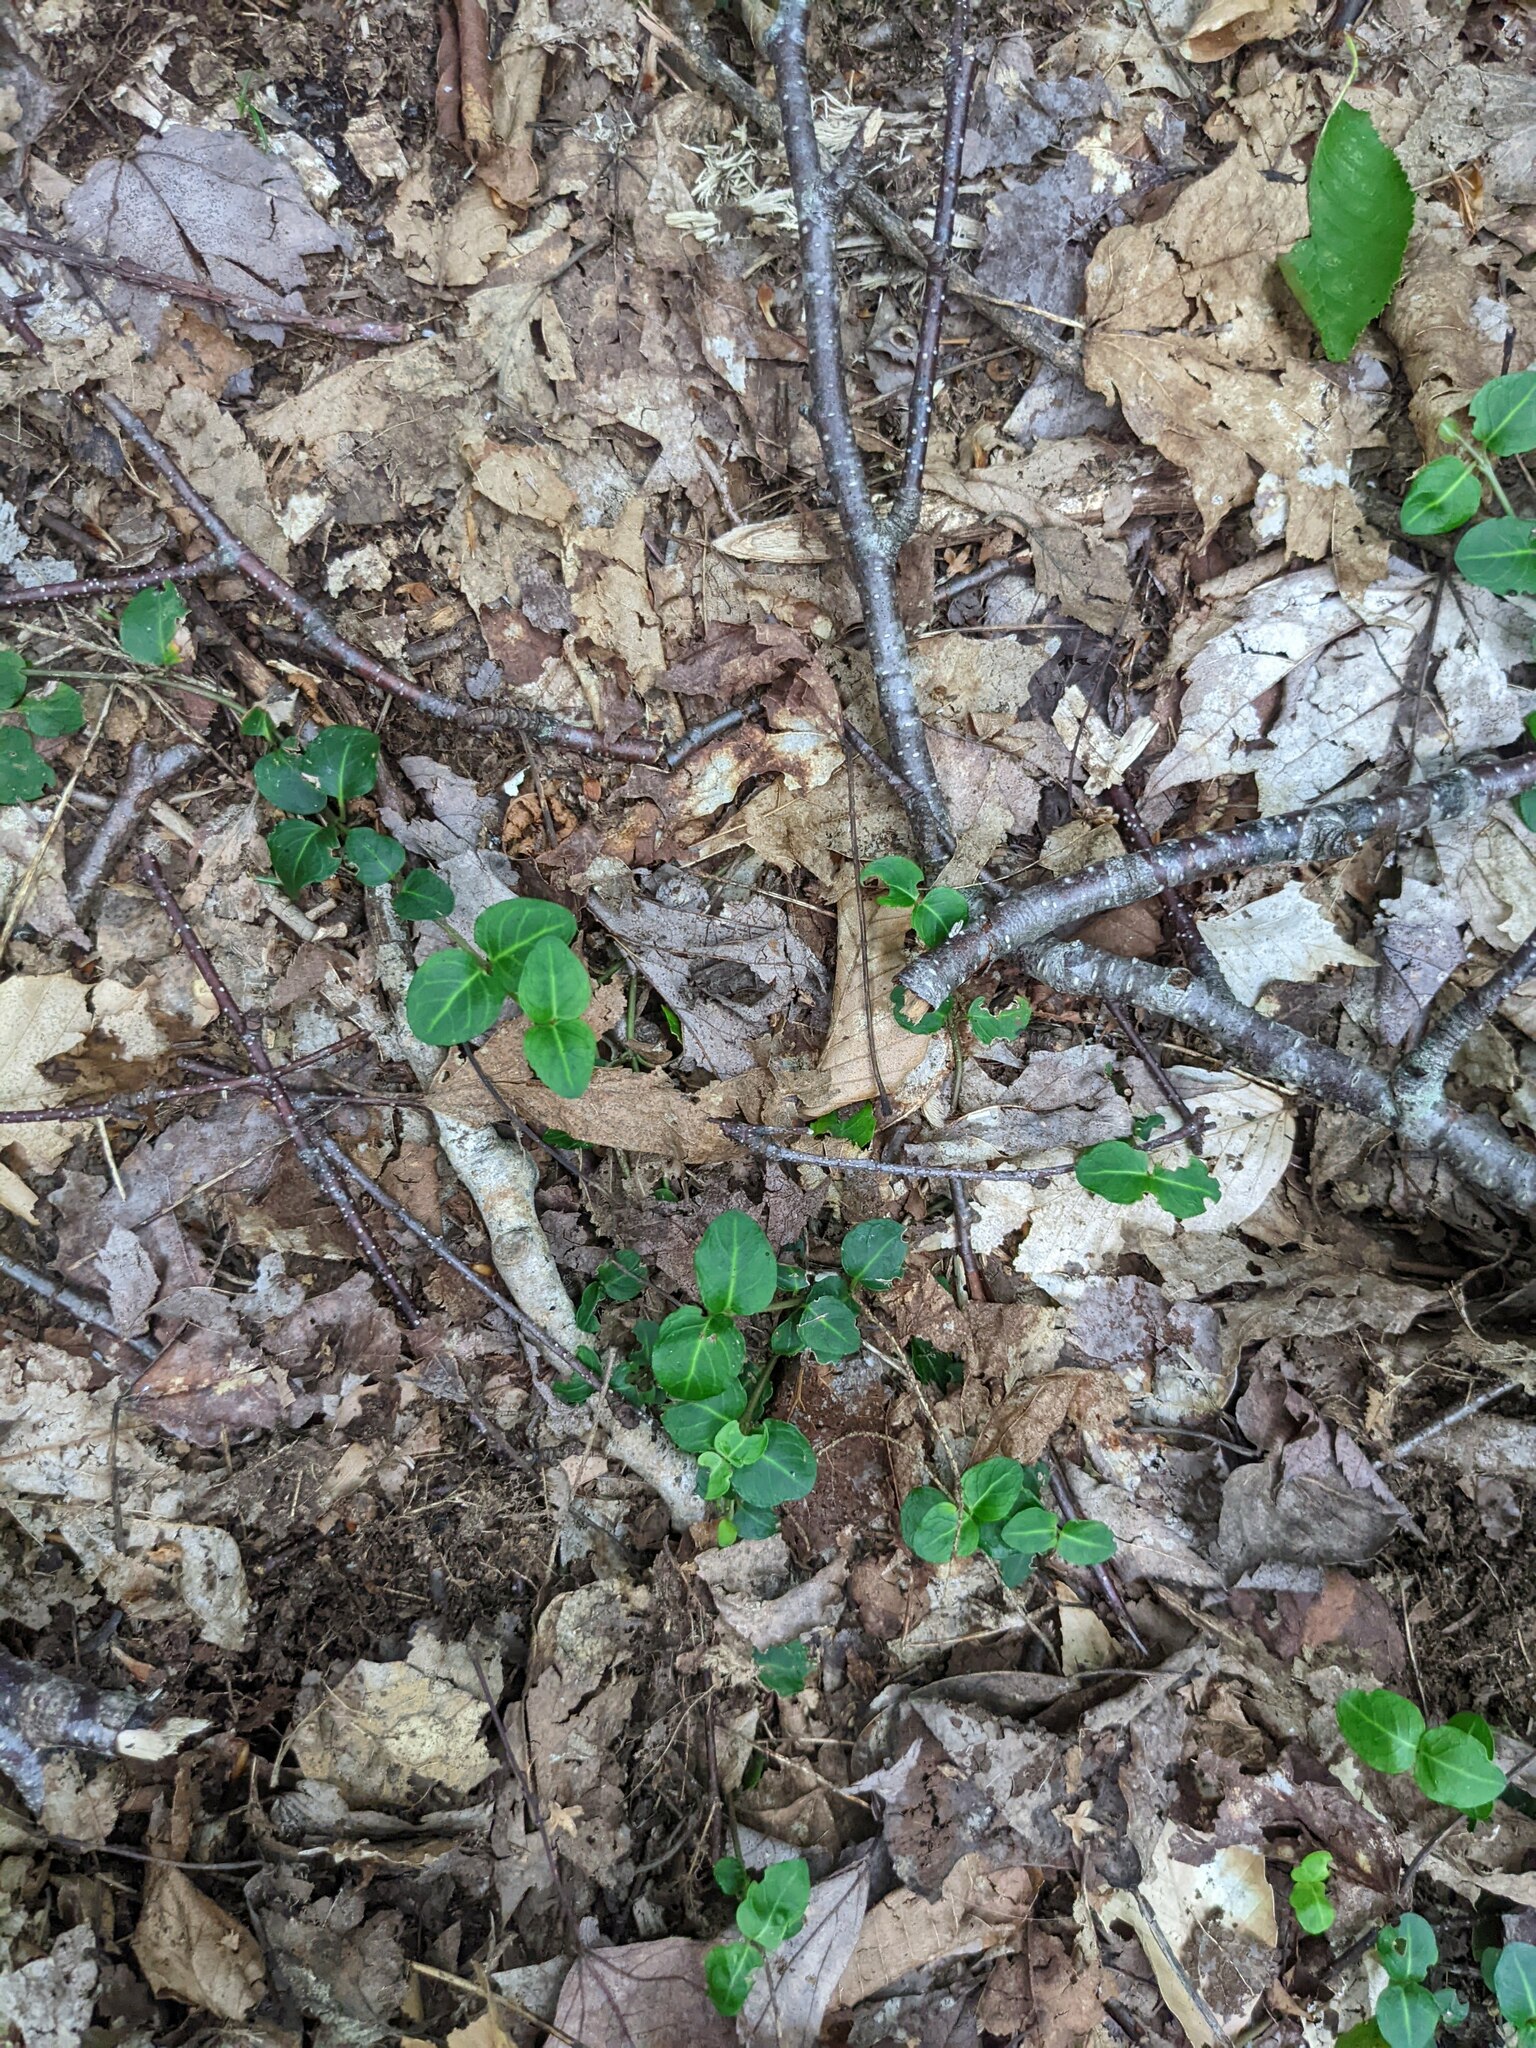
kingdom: Plantae
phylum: Tracheophyta
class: Magnoliopsida
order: Gentianales
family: Rubiaceae
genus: Mitchella
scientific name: Mitchella repens
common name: Partridge-berry
